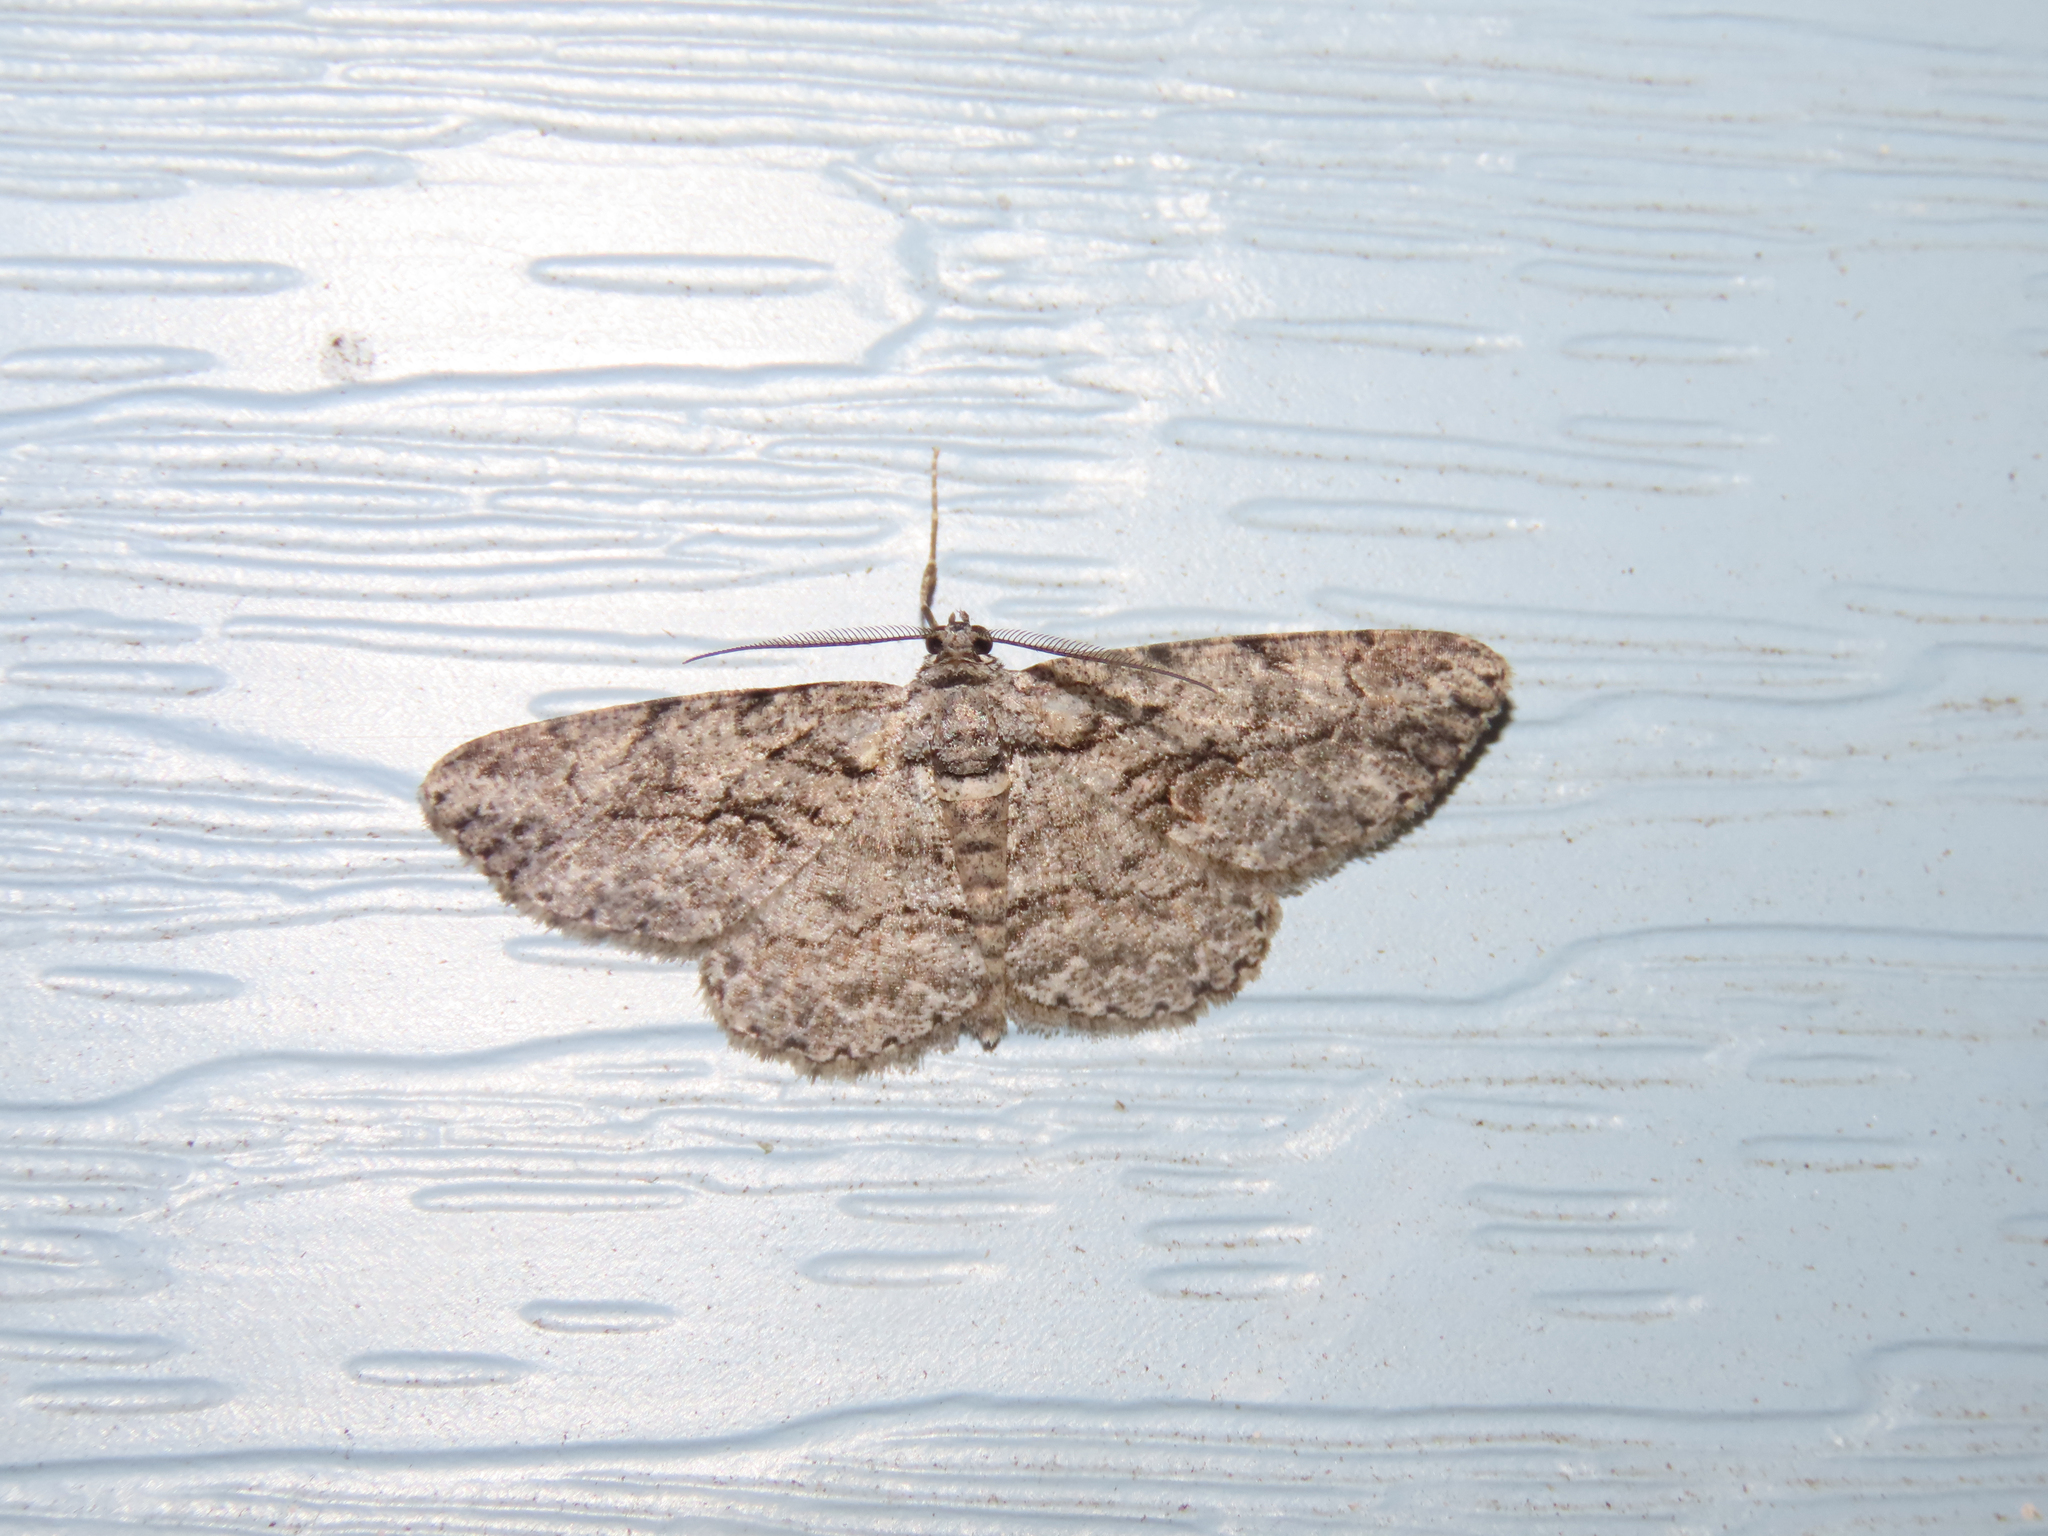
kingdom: Animalia
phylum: Arthropoda
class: Insecta
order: Lepidoptera
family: Geometridae
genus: Anavitrinella
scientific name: Anavitrinella pampinaria
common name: Common gray
